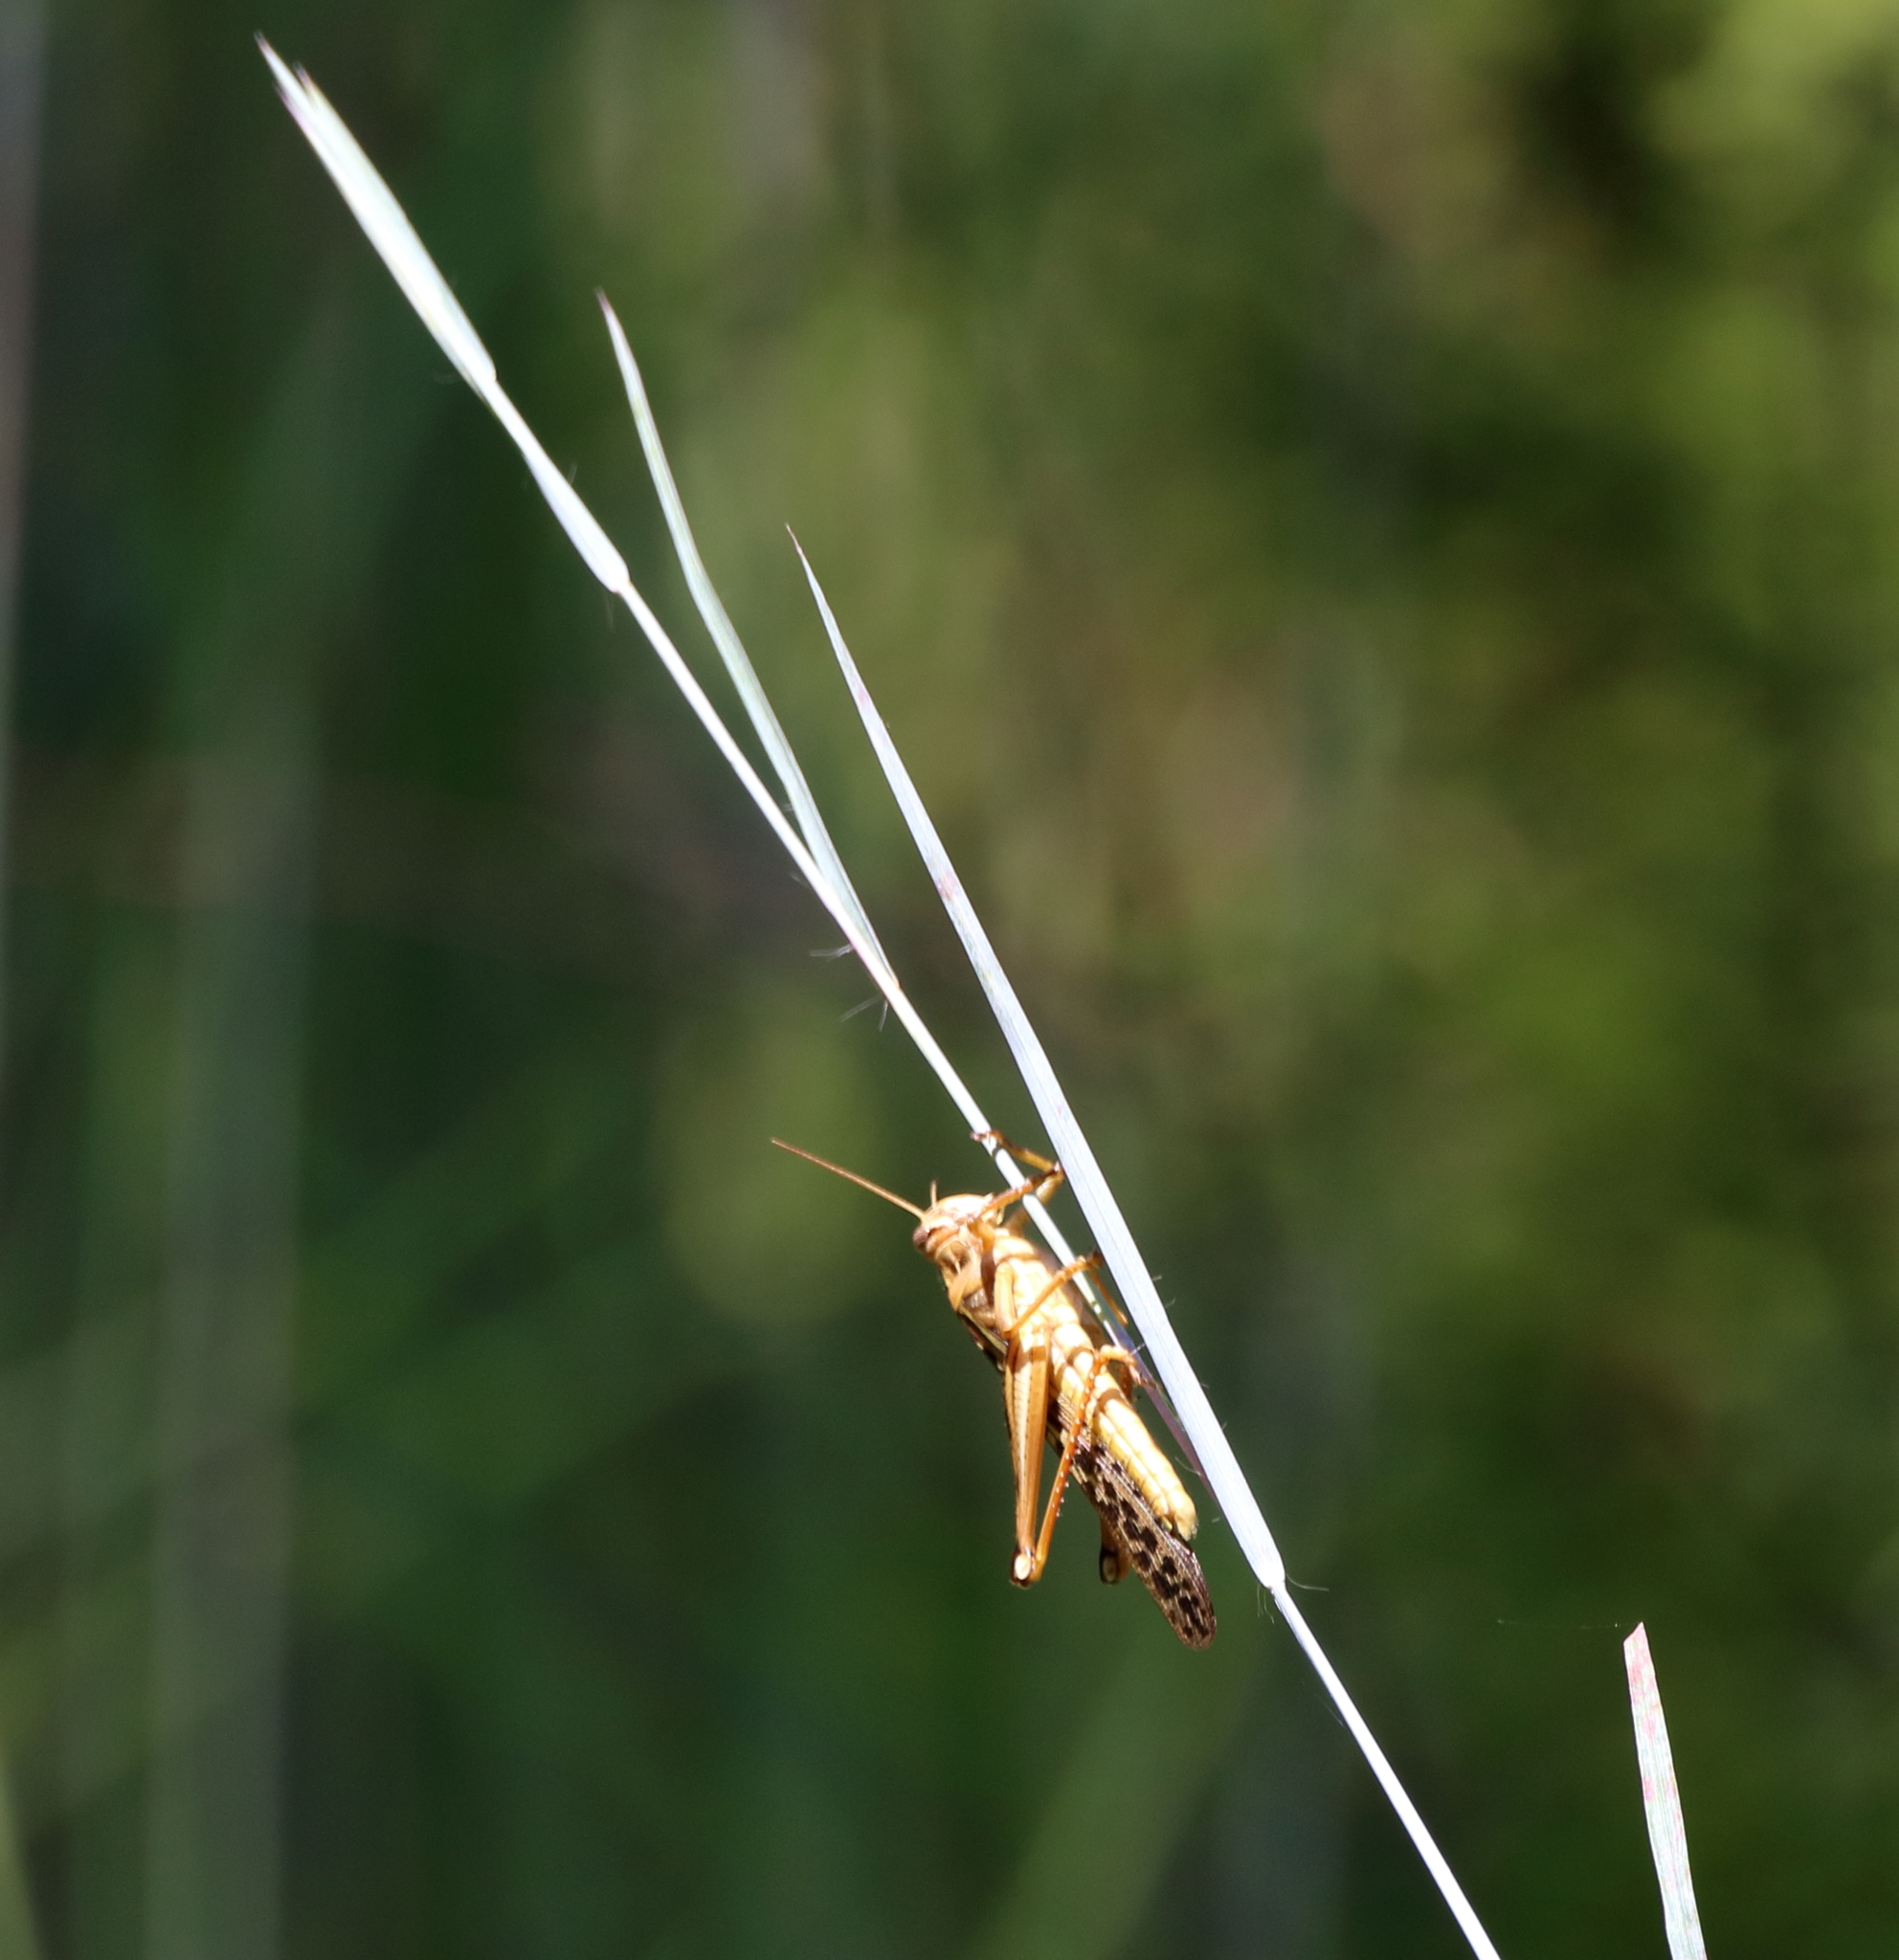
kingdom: Animalia
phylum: Arthropoda
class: Insecta
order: Orthoptera
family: Acrididae
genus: Schistocerca
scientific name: Schistocerca americana
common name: American bird locust
